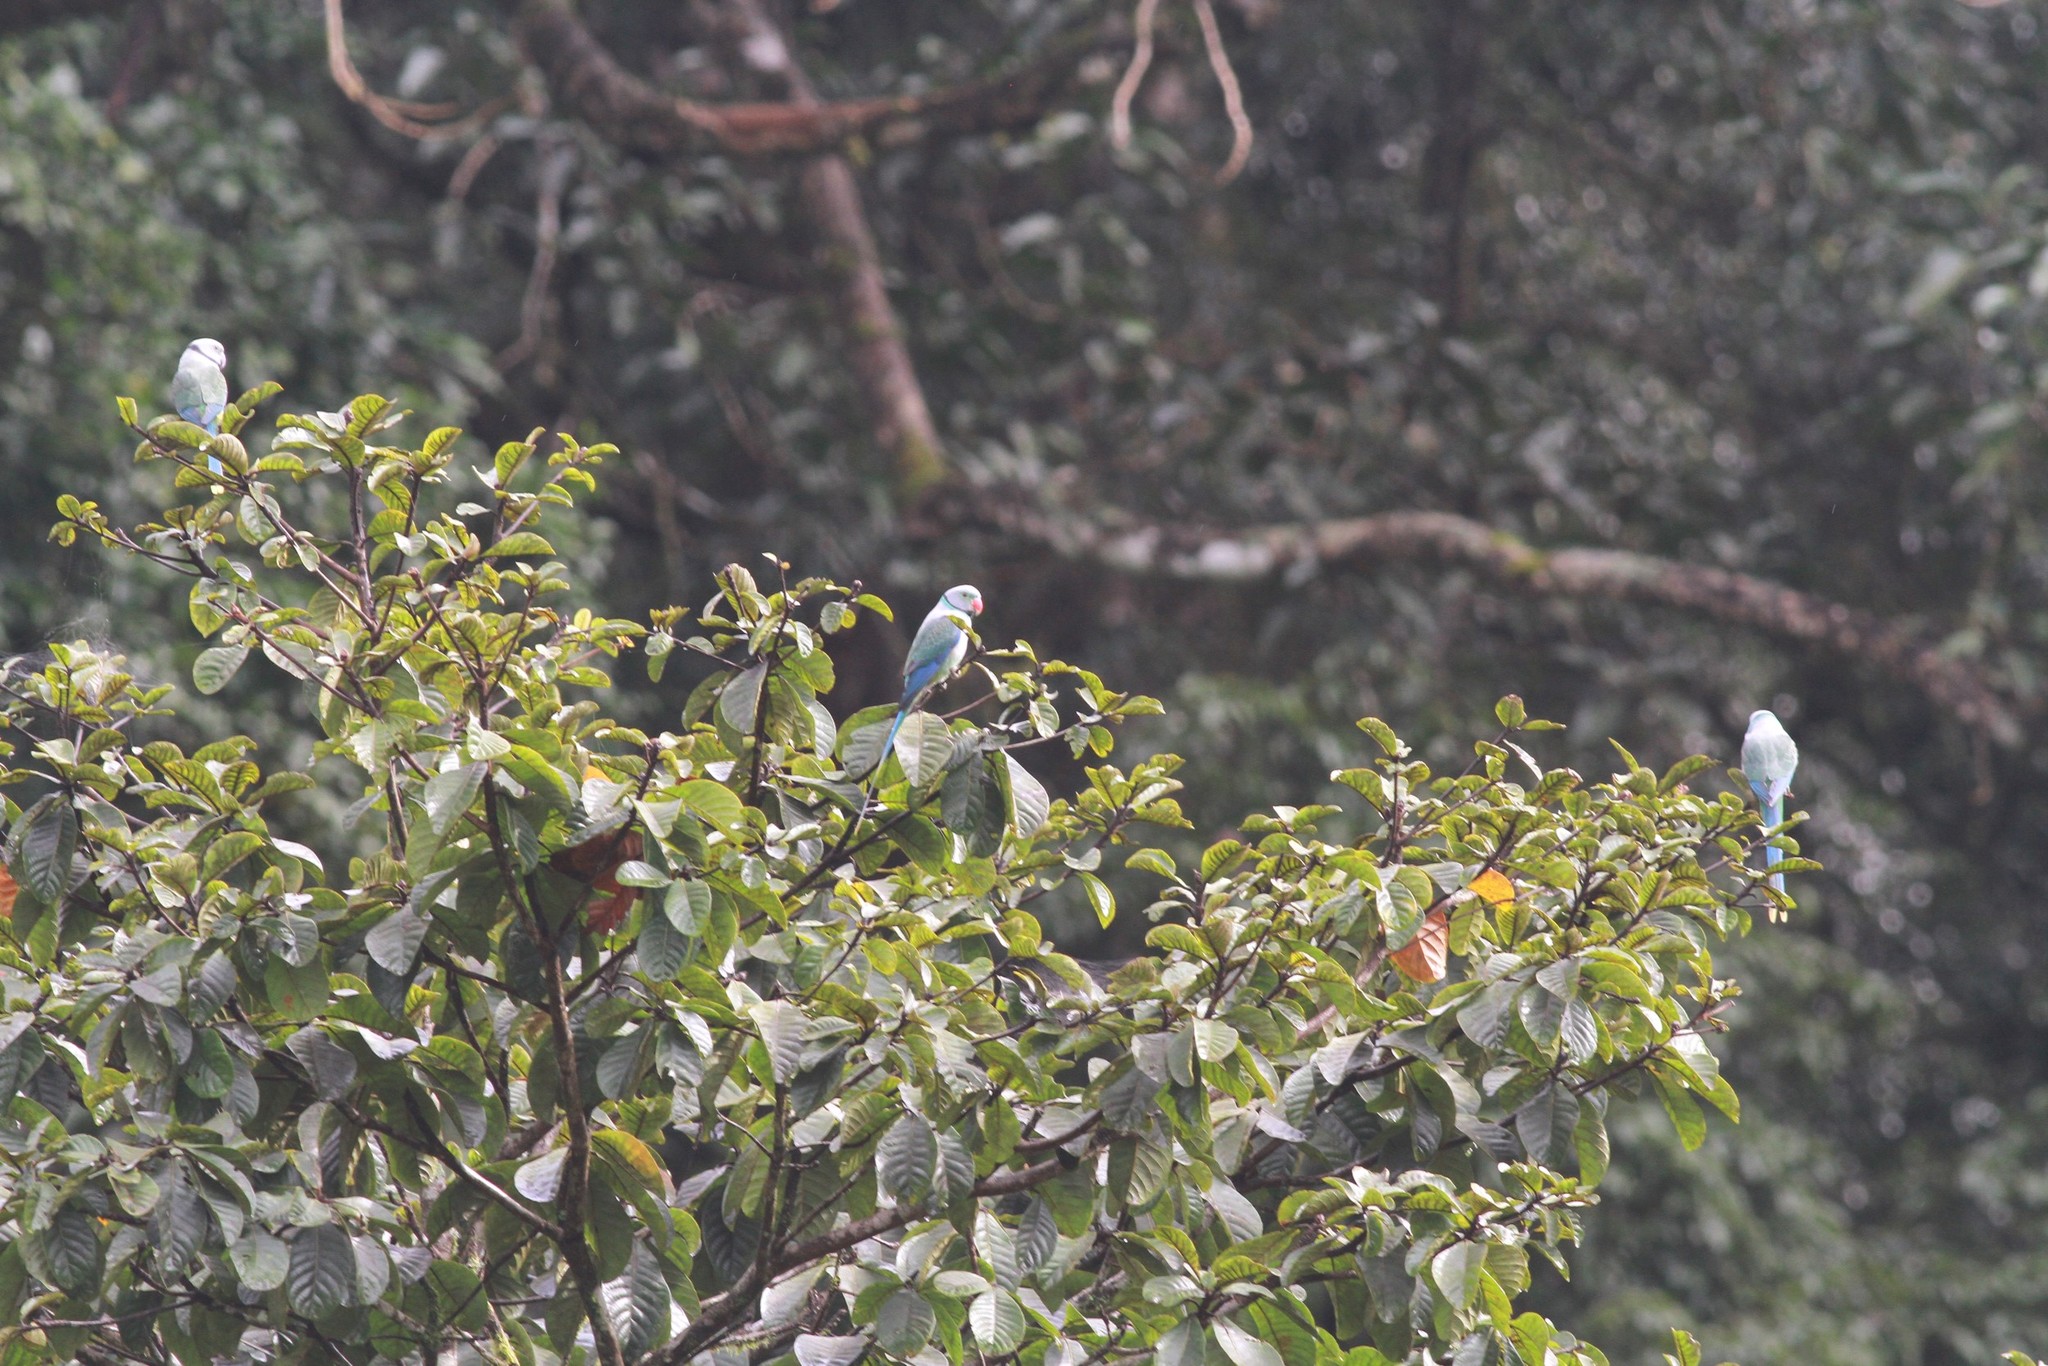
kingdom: Animalia
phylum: Chordata
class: Aves
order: Psittaciformes
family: Psittacidae
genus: Psittacula
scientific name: Psittacula columboides
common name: Blue-winged parakeet
